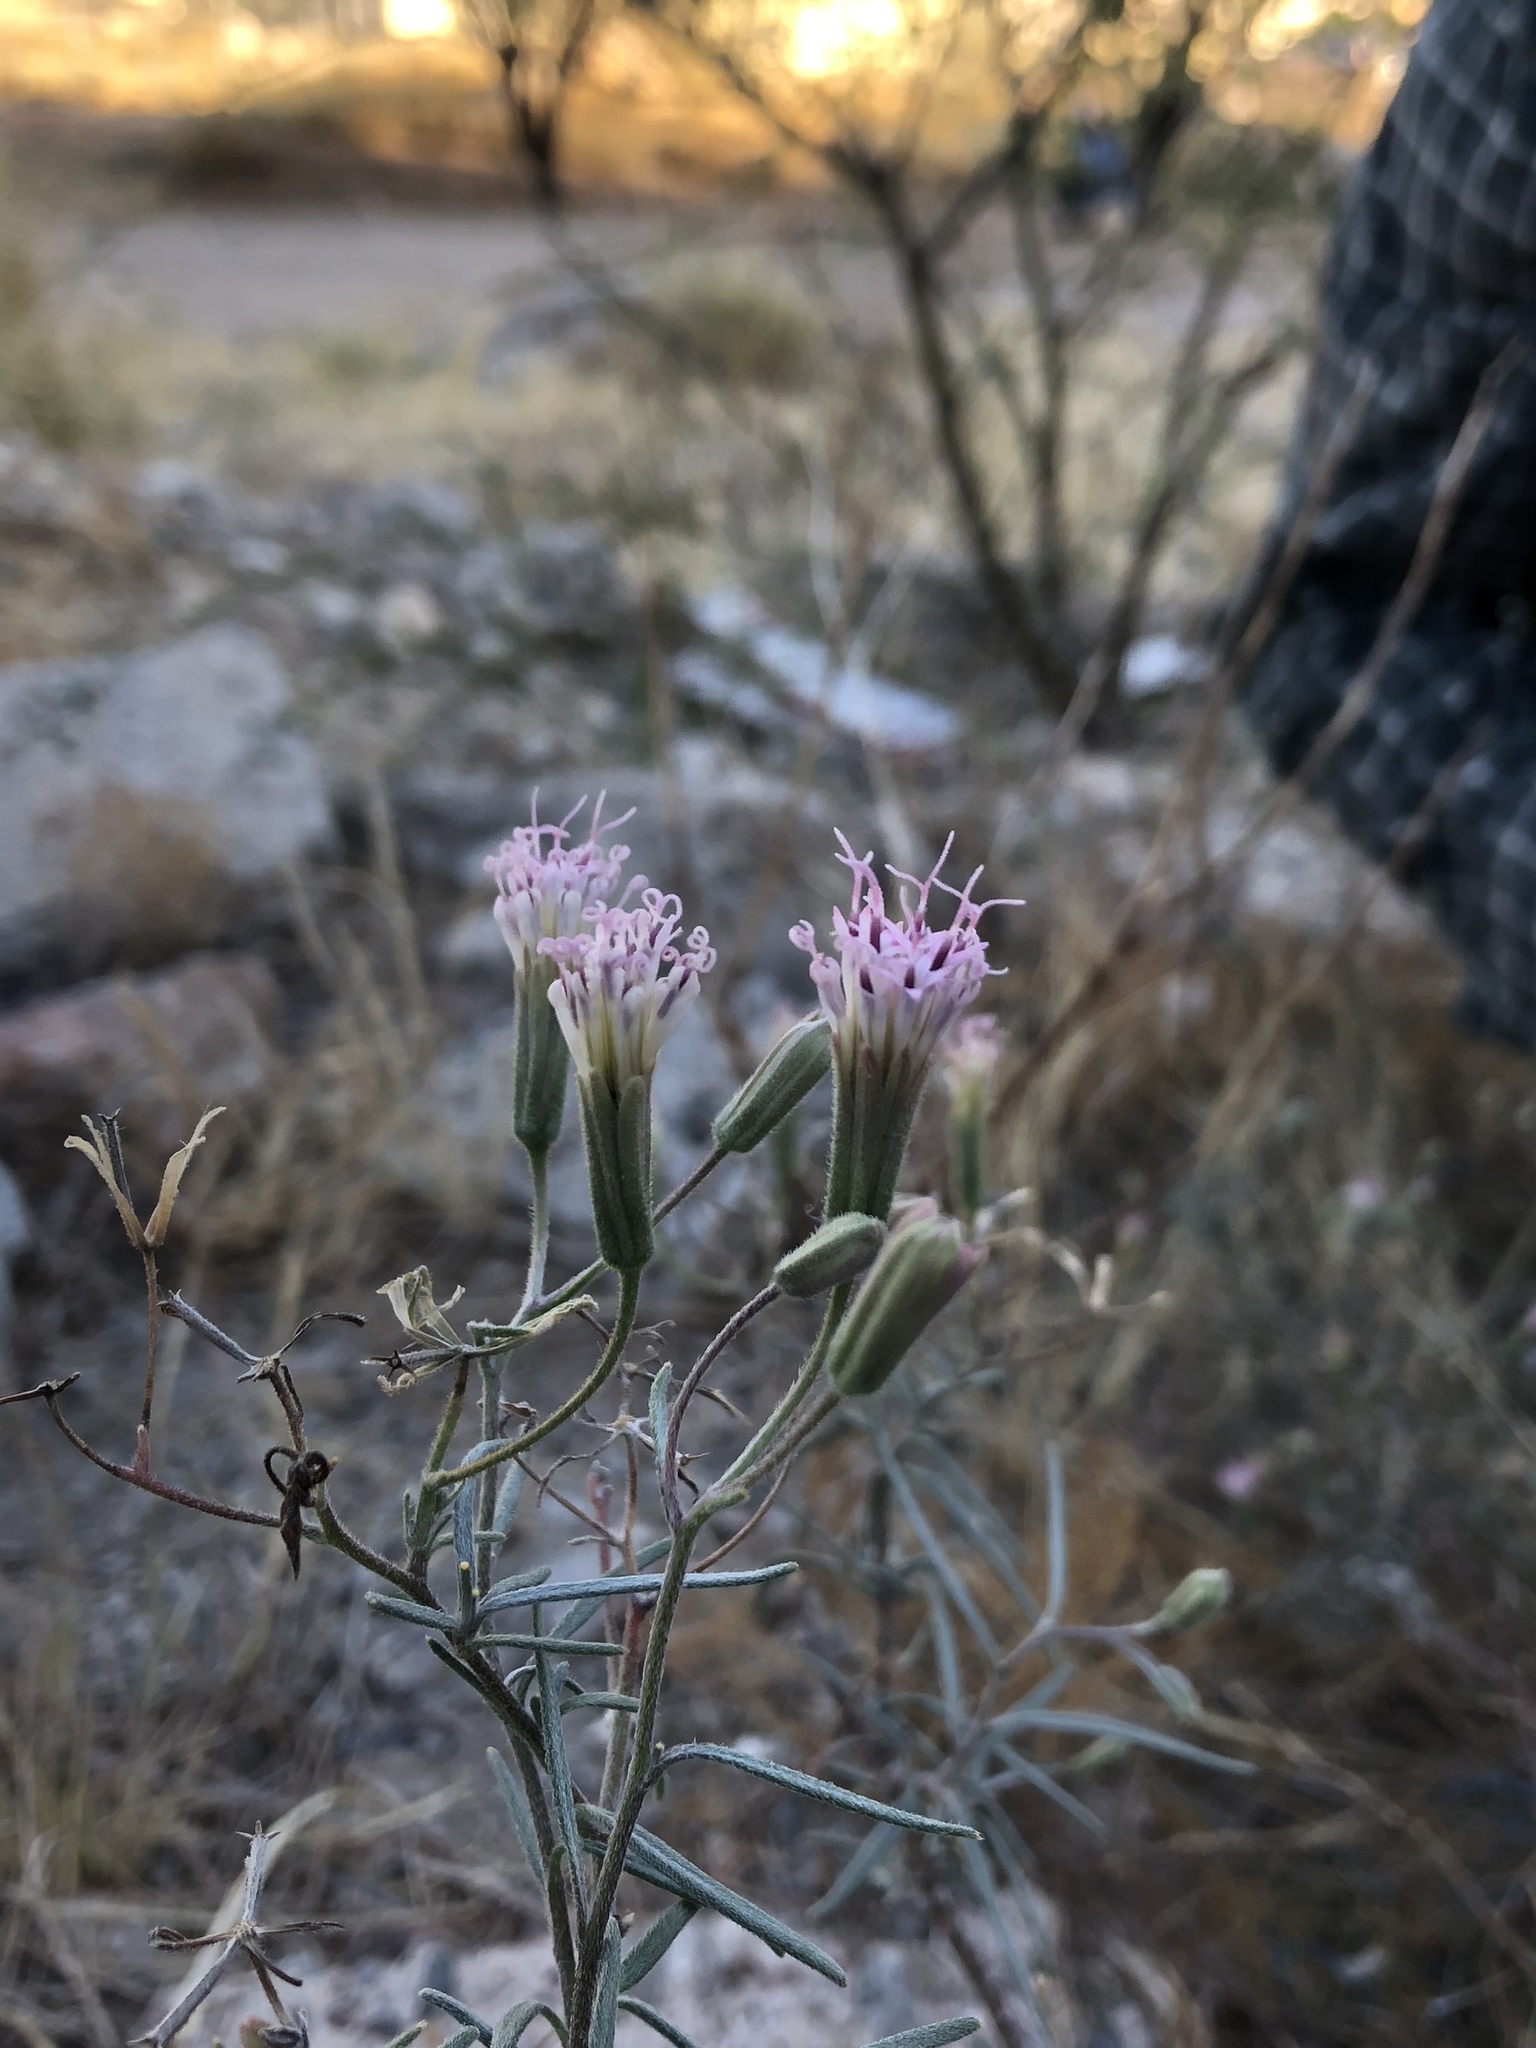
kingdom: Plantae
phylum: Tracheophyta
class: Magnoliopsida
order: Asterales
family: Asteraceae
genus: Palafoxia
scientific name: Palafoxia arida
